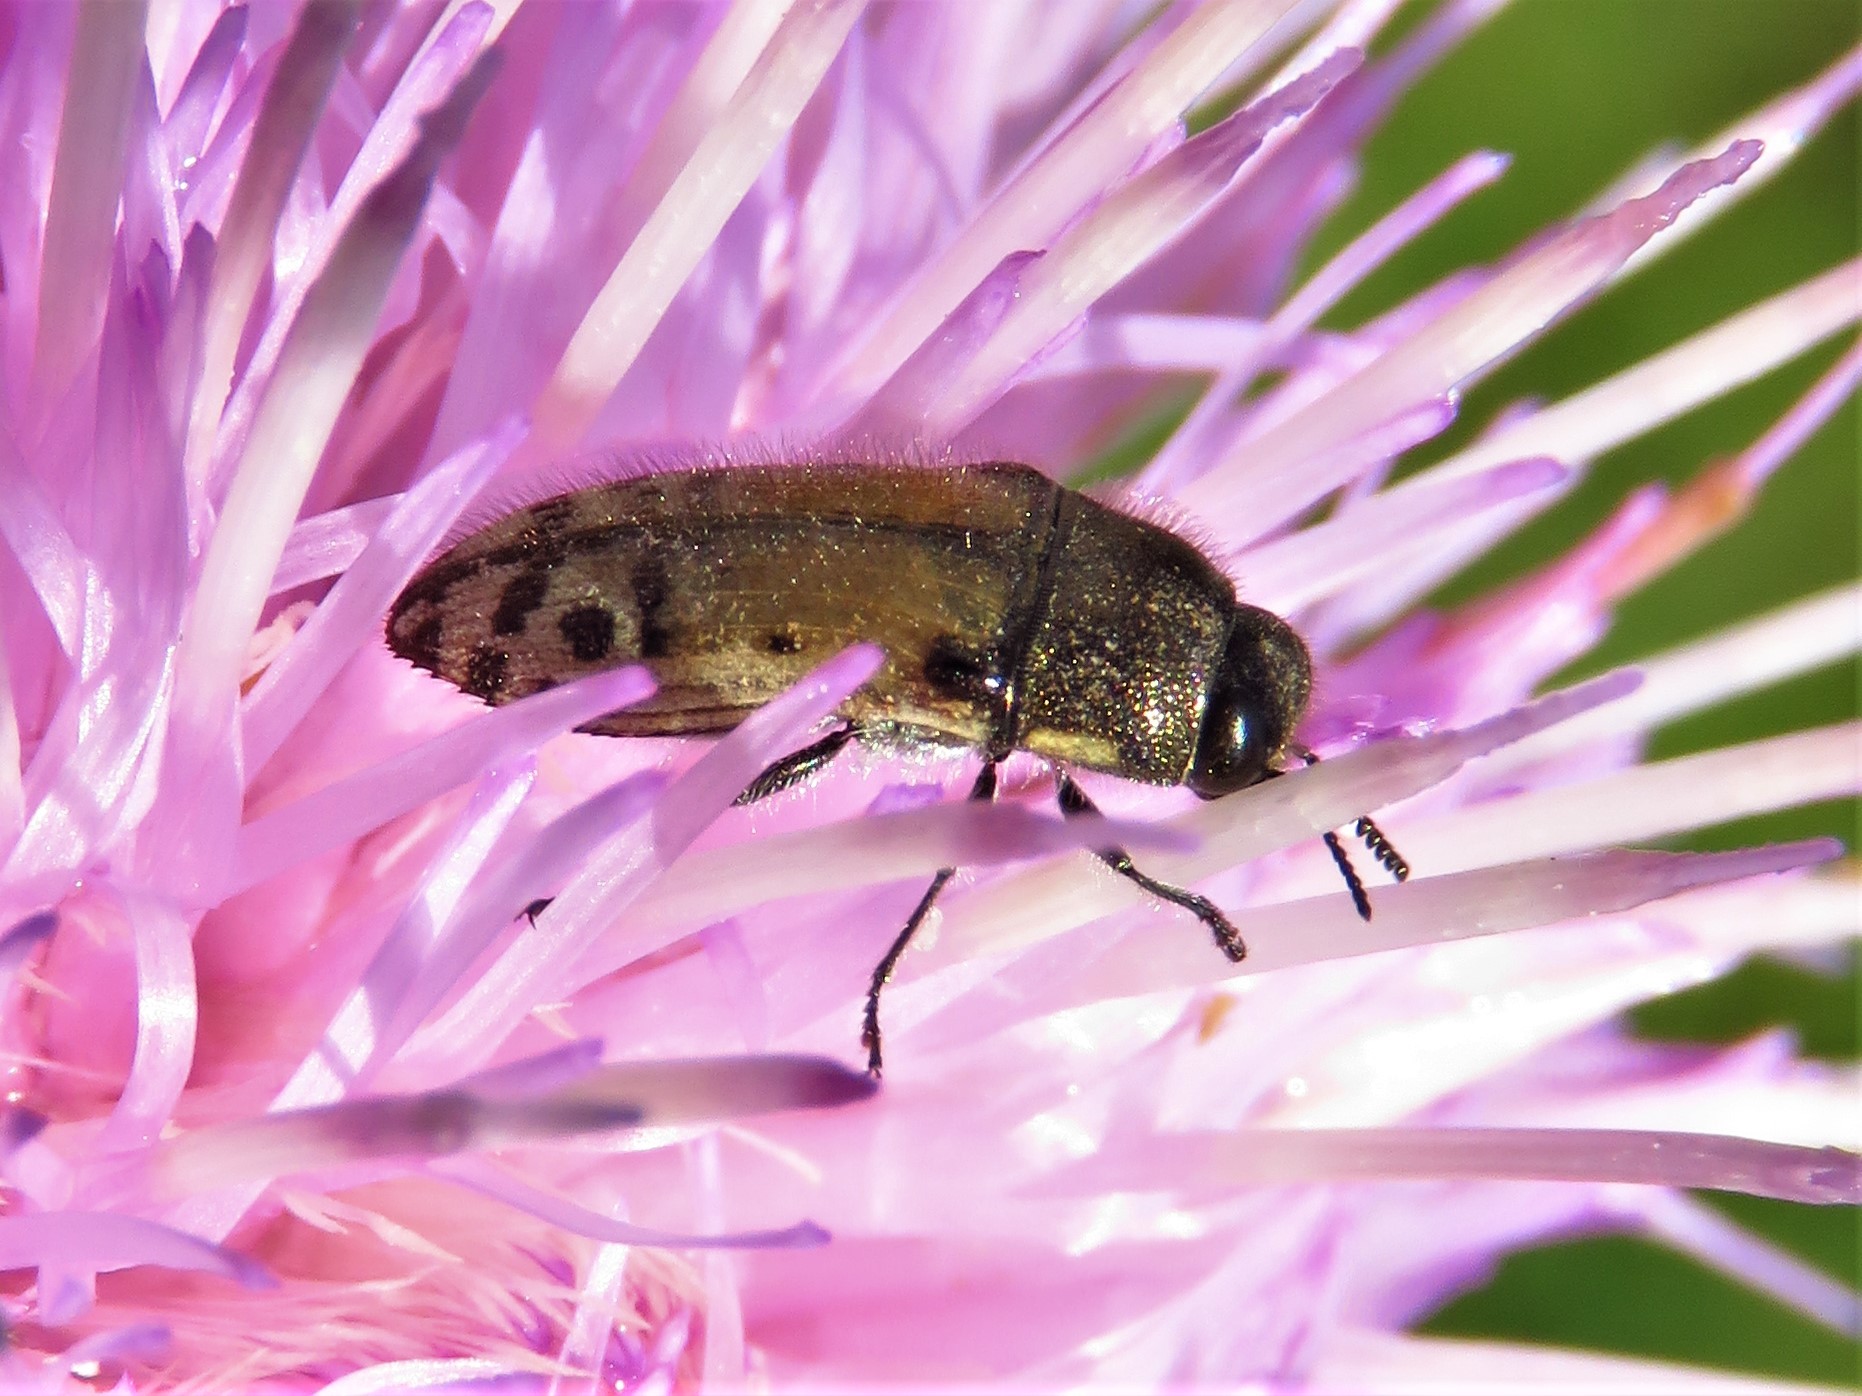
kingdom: Animalia
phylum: Arthropoda
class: Insecta
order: Coleoptera
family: Buprestidae
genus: Acmaeodera
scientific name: Acmaeodera mixta
